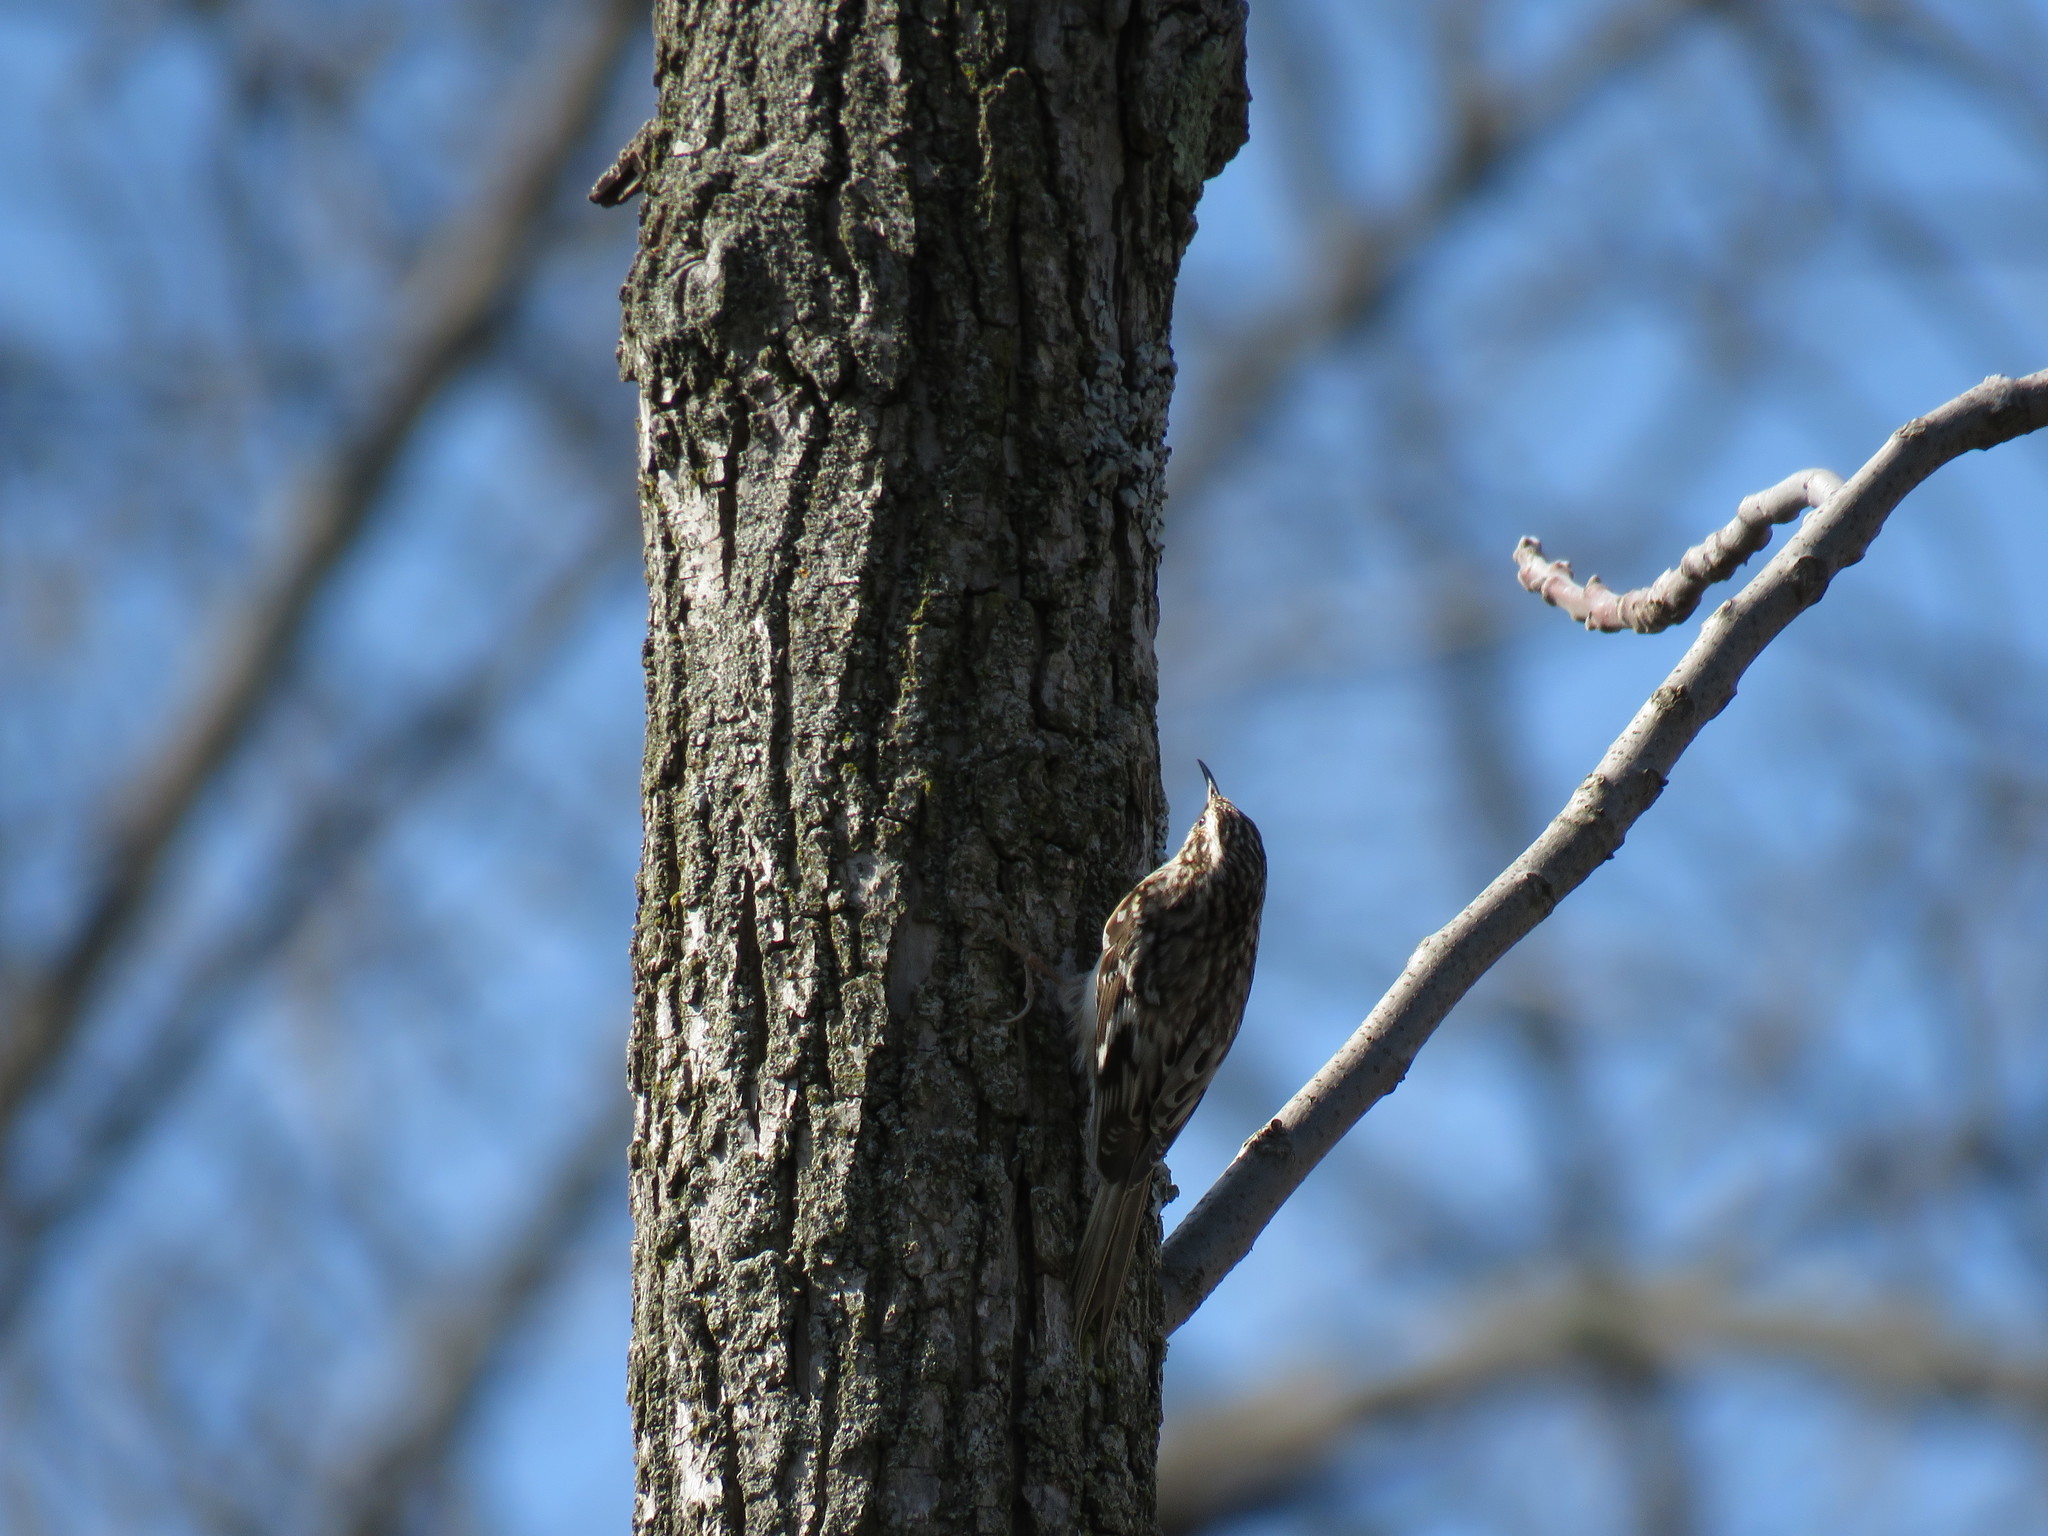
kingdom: Animalia
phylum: Chordata
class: Aves
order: Passeriformes
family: Certhiidae
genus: Certhia
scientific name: Certhia americana
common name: Brown creeper
